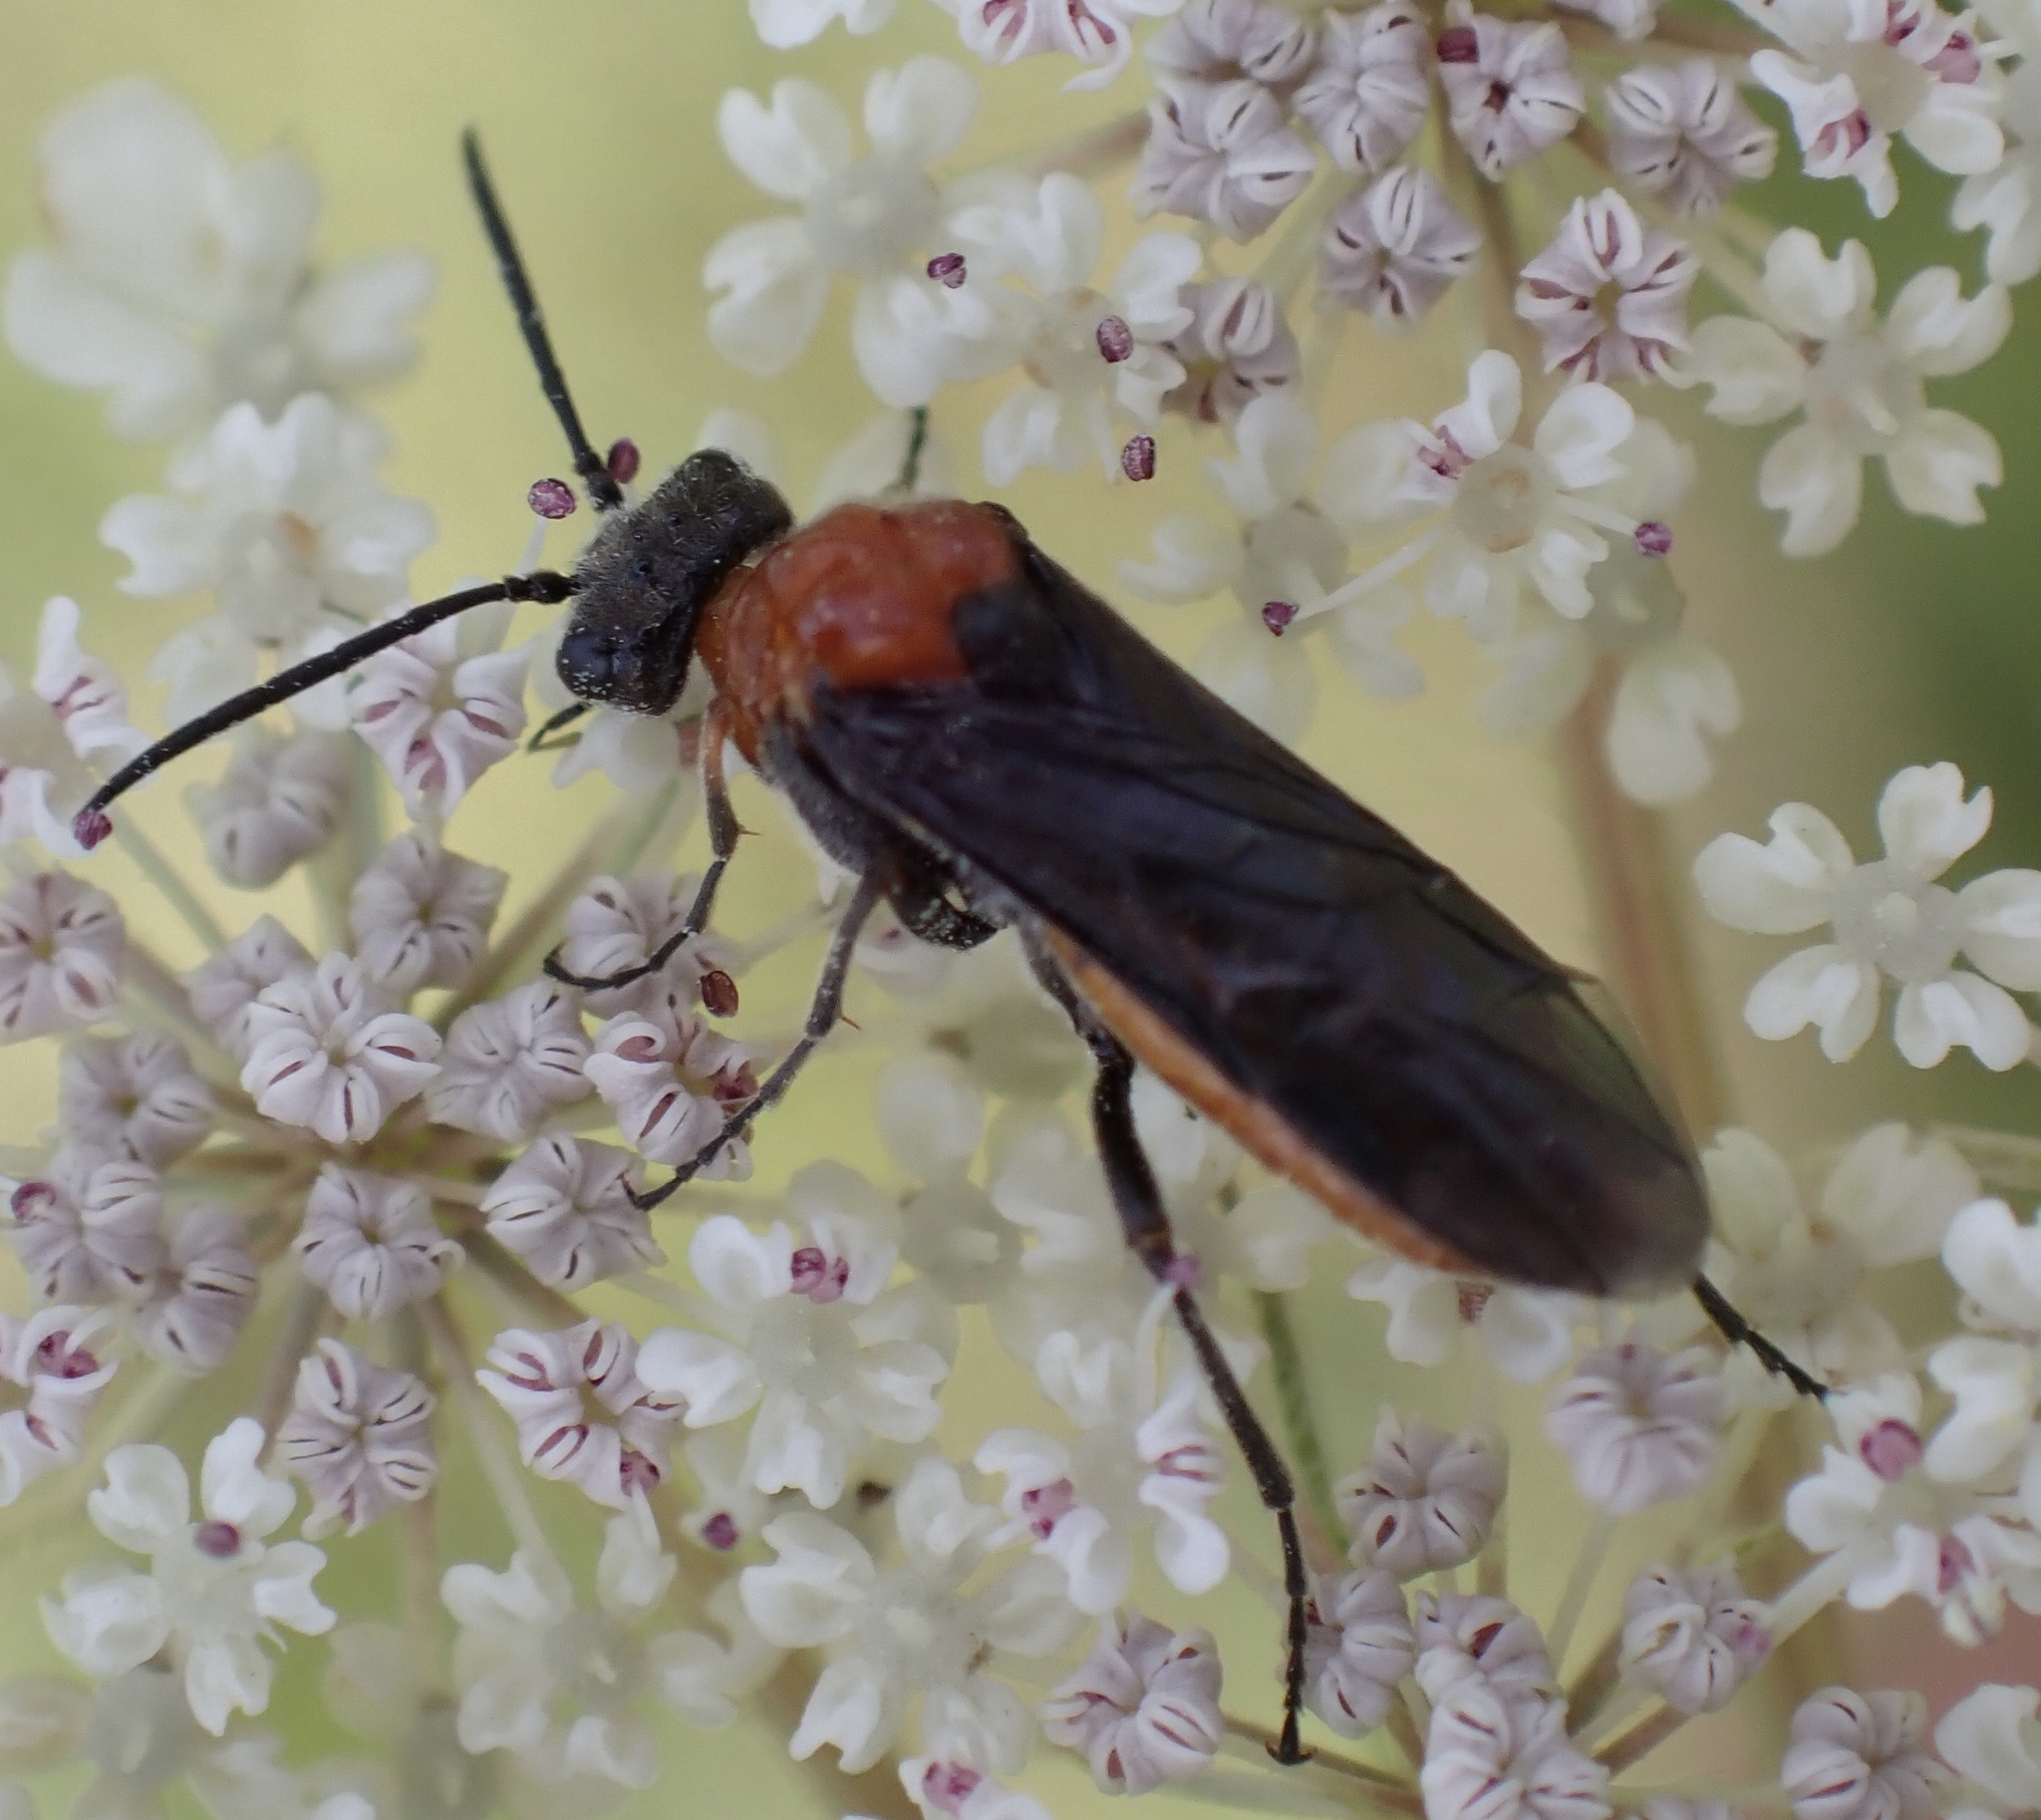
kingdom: Animalia
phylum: Arthropoda
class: Insecta
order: Hymenoptera
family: Tenthredinidae
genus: Dolerus
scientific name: Dolerus germanicus
